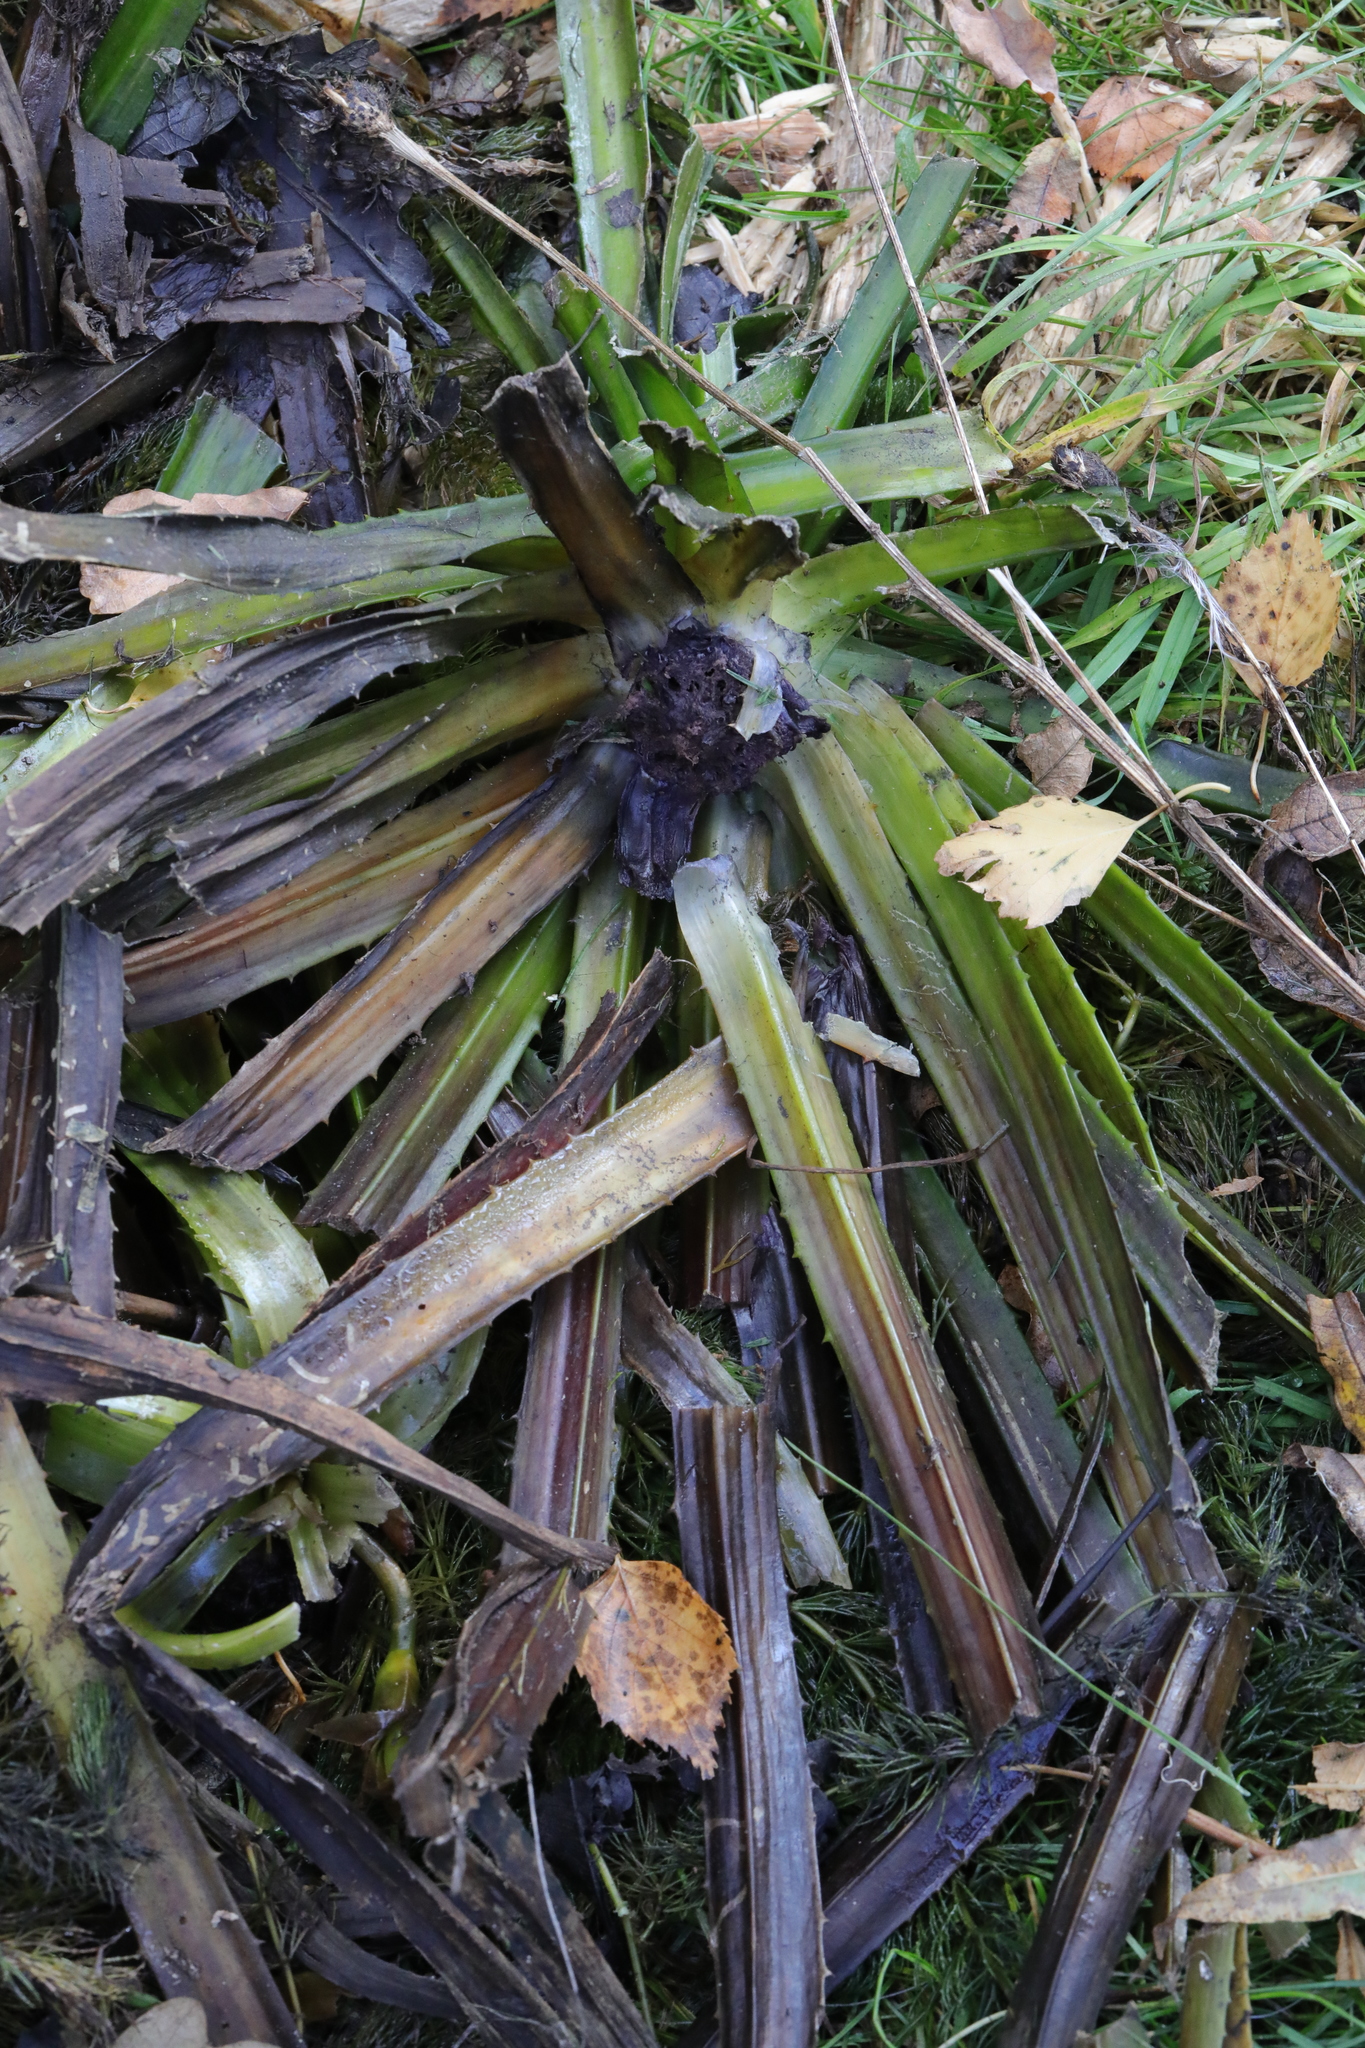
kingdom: Plantae
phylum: Tracheophyta
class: Liliopsida
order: Alismatales
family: Hydrocharitaceae
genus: Stratiotes
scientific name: Stratiotes aloides
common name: Water-soldier
